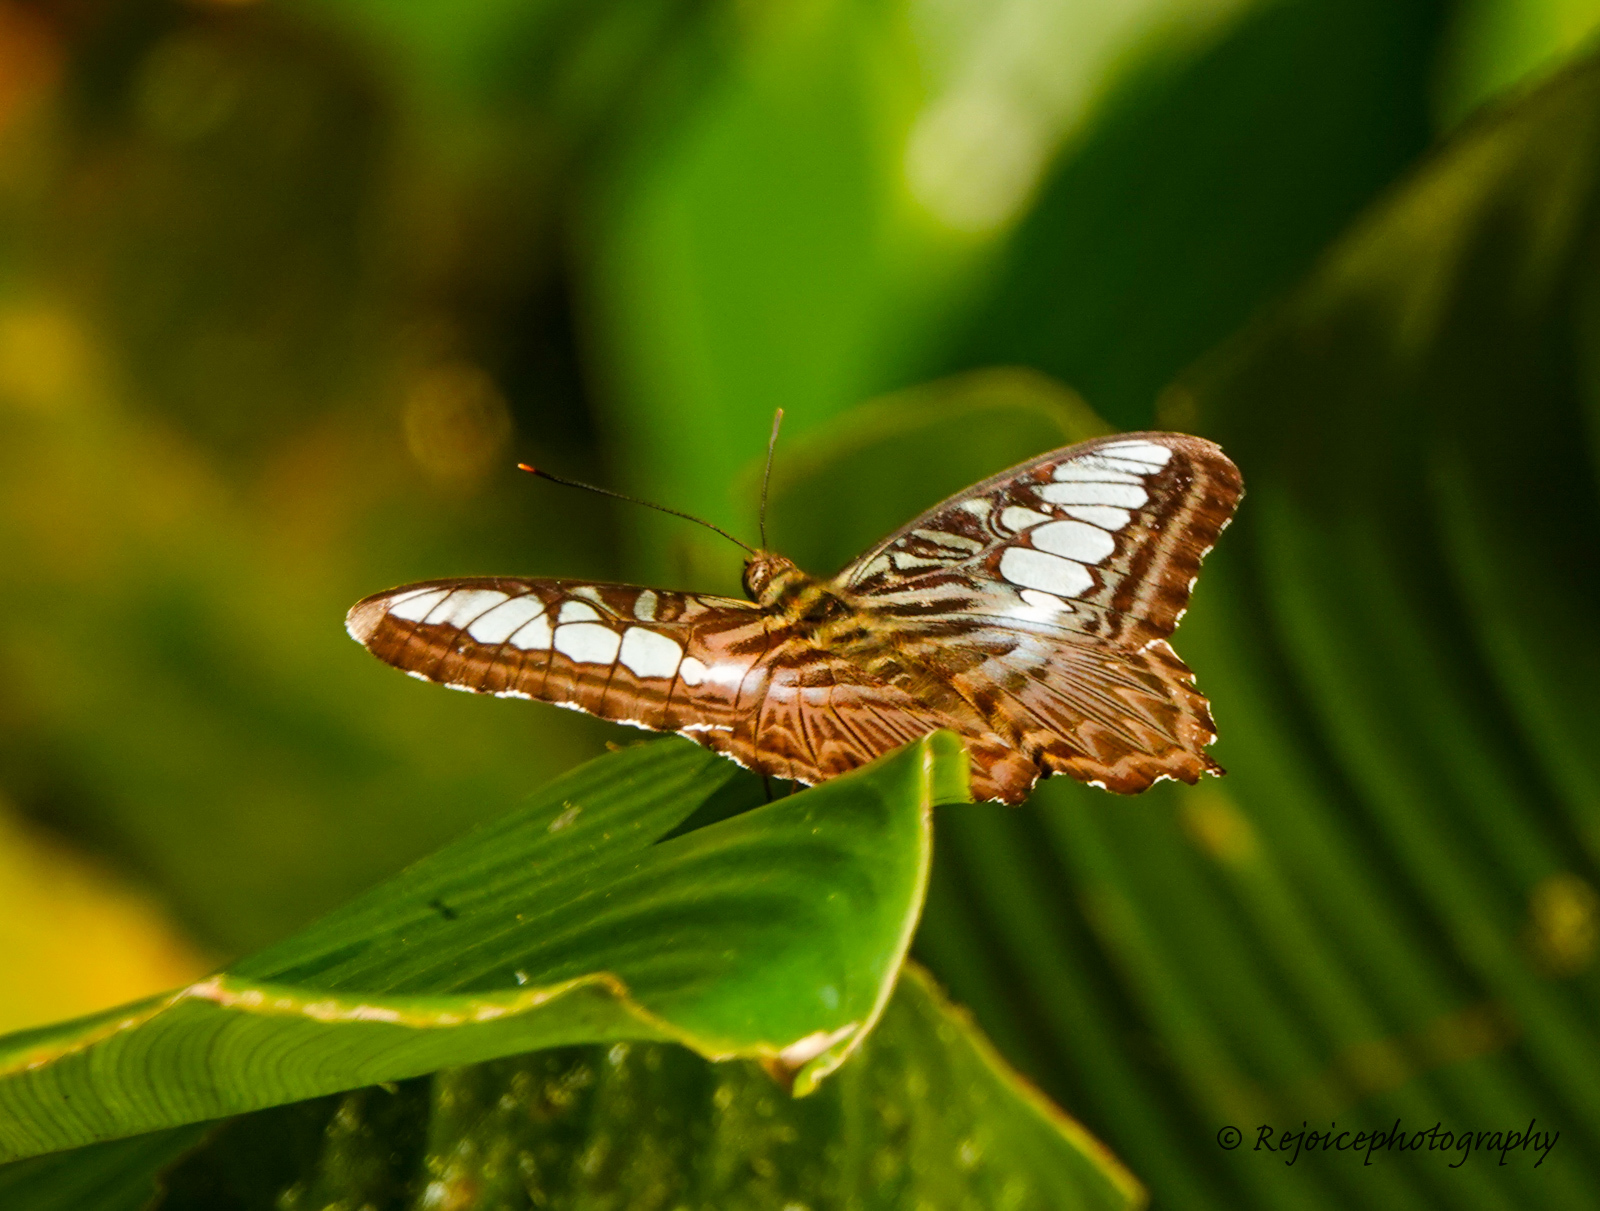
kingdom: Animalia
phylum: Arthropoda
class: Insecta
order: Lepidoptera
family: Nymphalidae
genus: Kallima
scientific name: Kallima sylvia
